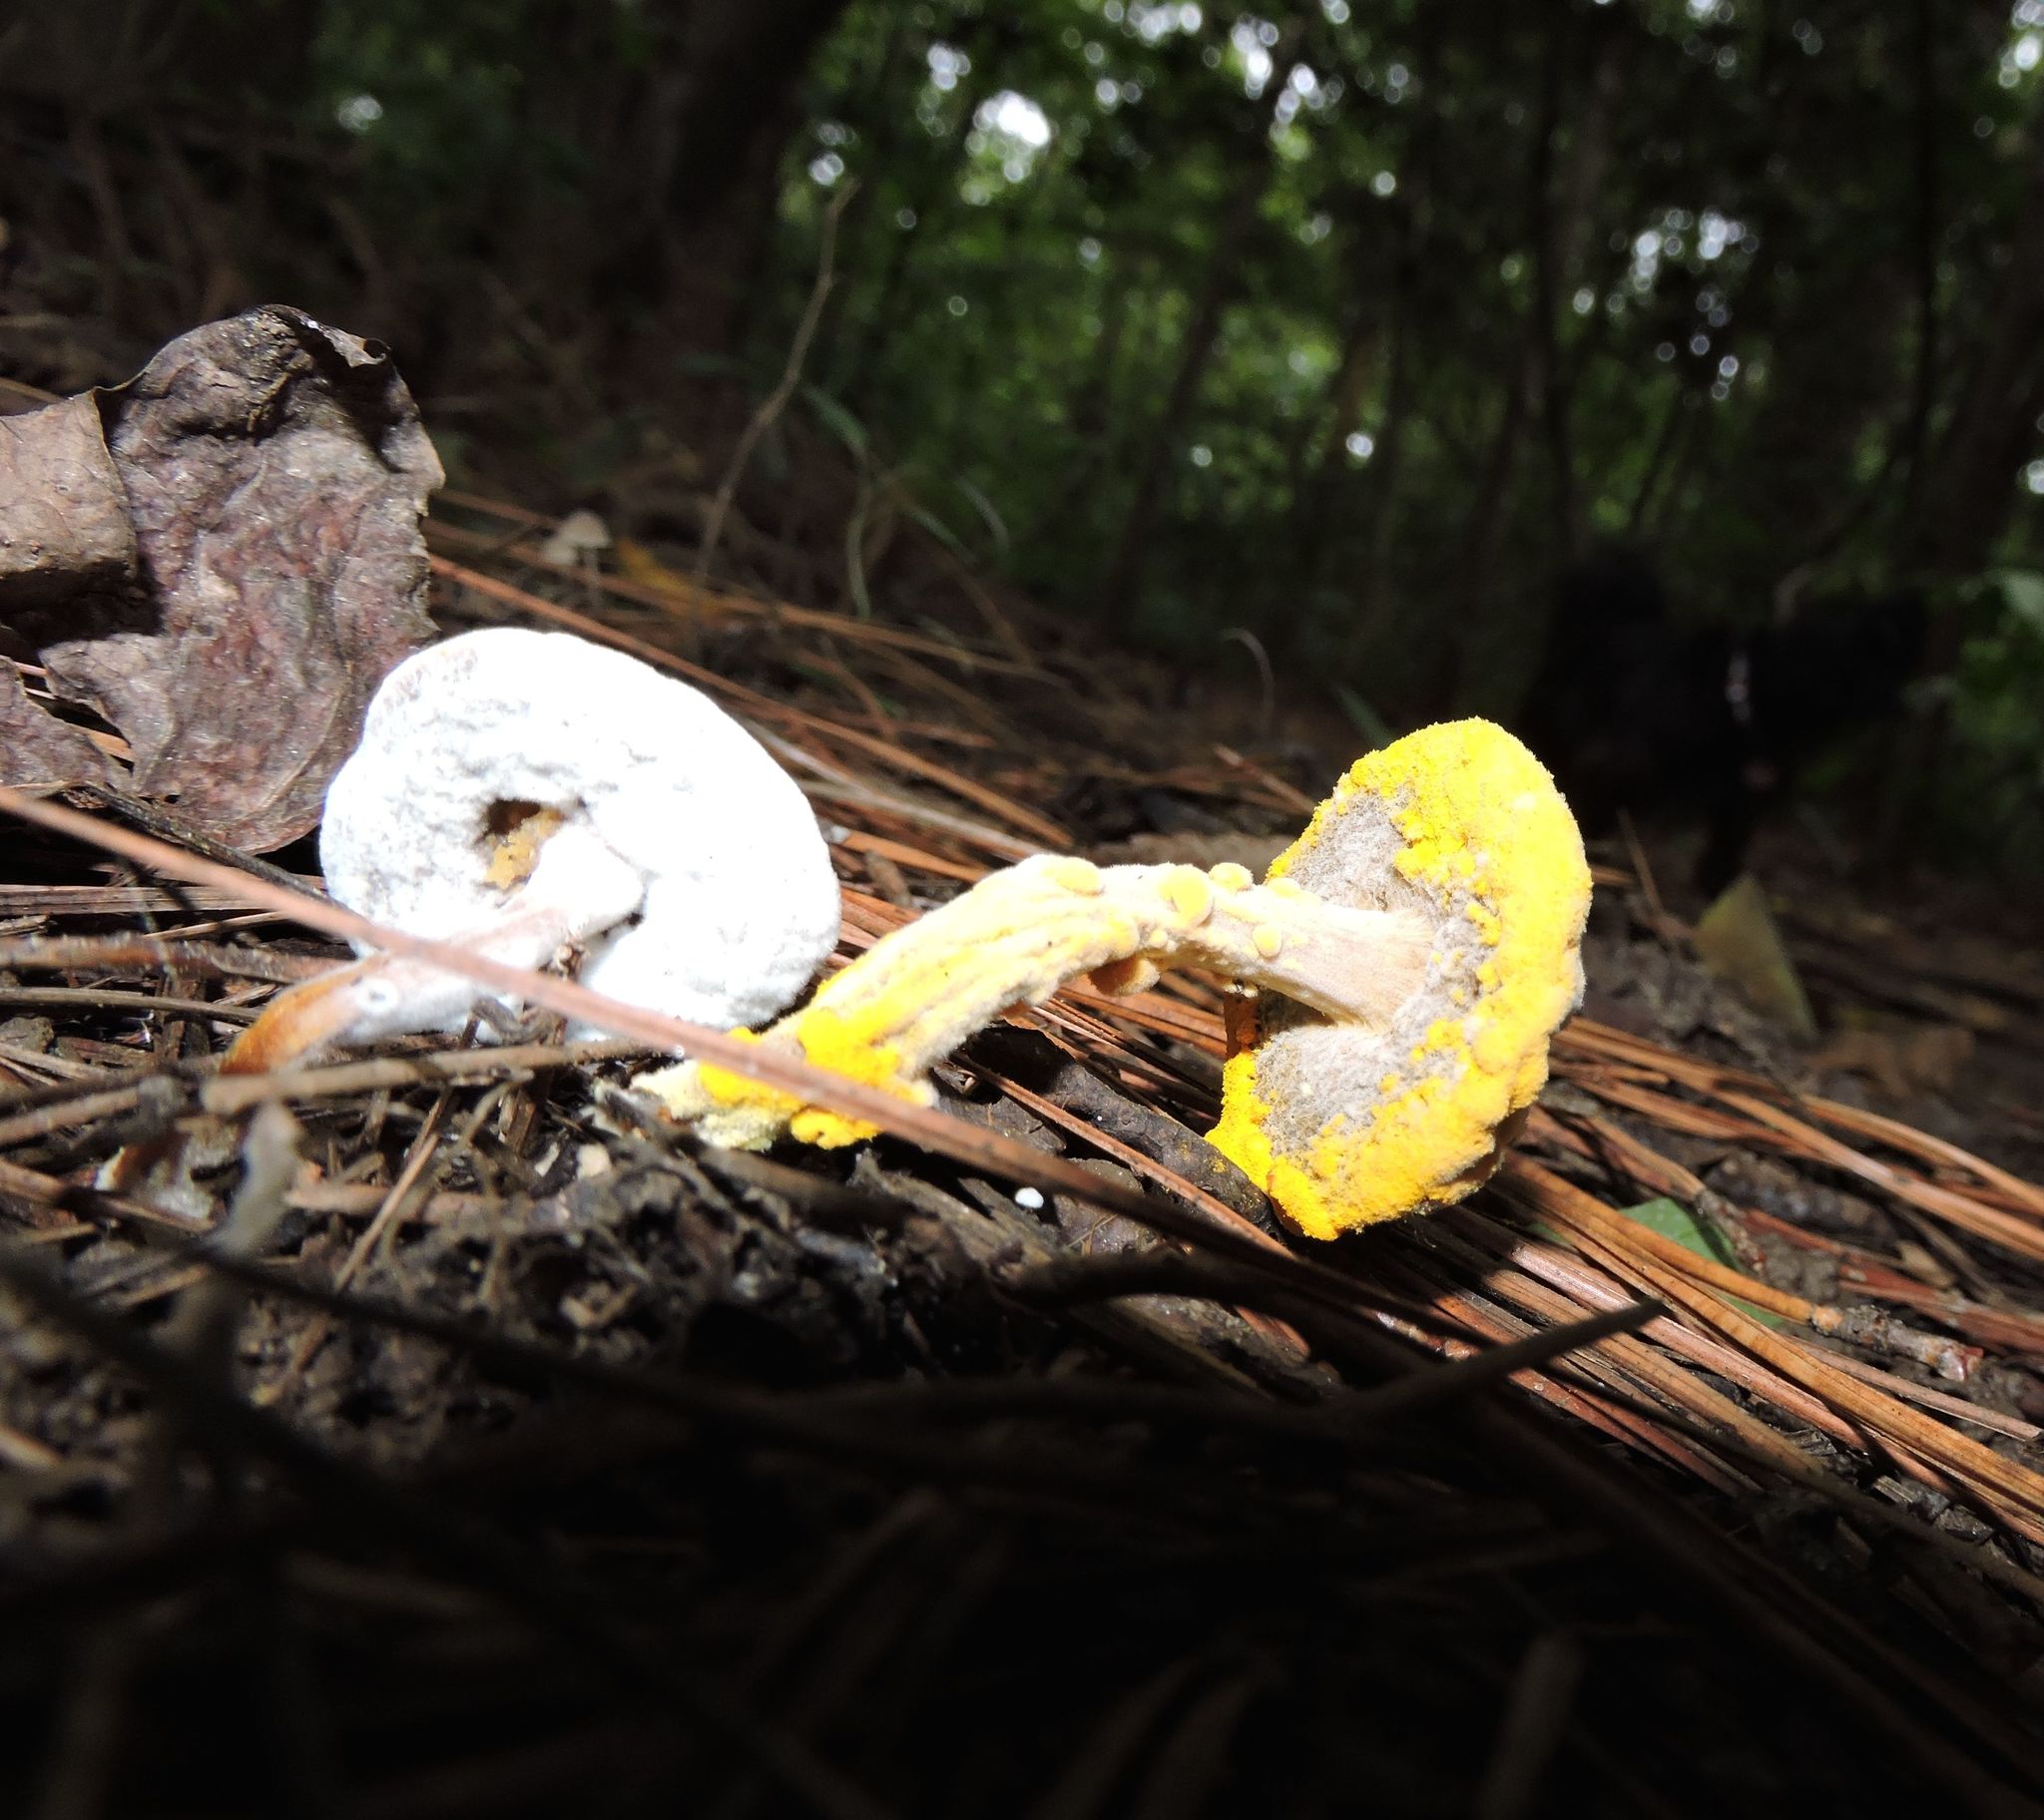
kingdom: Fungi
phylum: Ascomycota
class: Sordariomycetes
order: Hypocreales
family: Hypocreaceae
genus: Hypomyces
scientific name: Hypomyces chrysospermus
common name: Bolete mould
